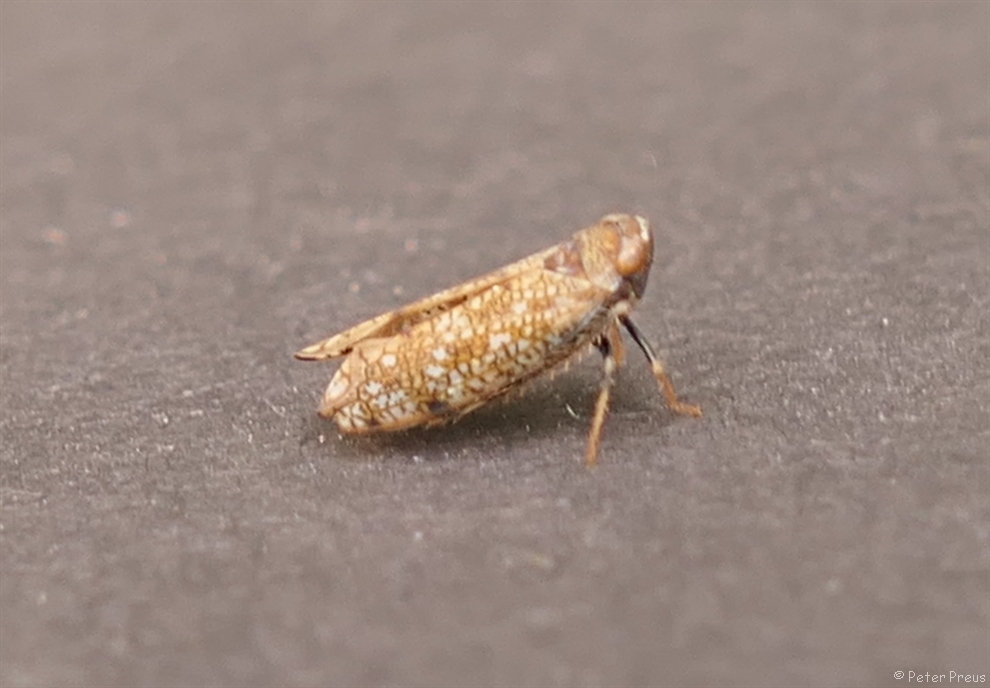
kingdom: Animalia
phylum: Arthropoda
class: Insecta
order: Hemiptera
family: Cicadellidae
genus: Orientus
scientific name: Orientus ishidae
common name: Japanese leafhopper
